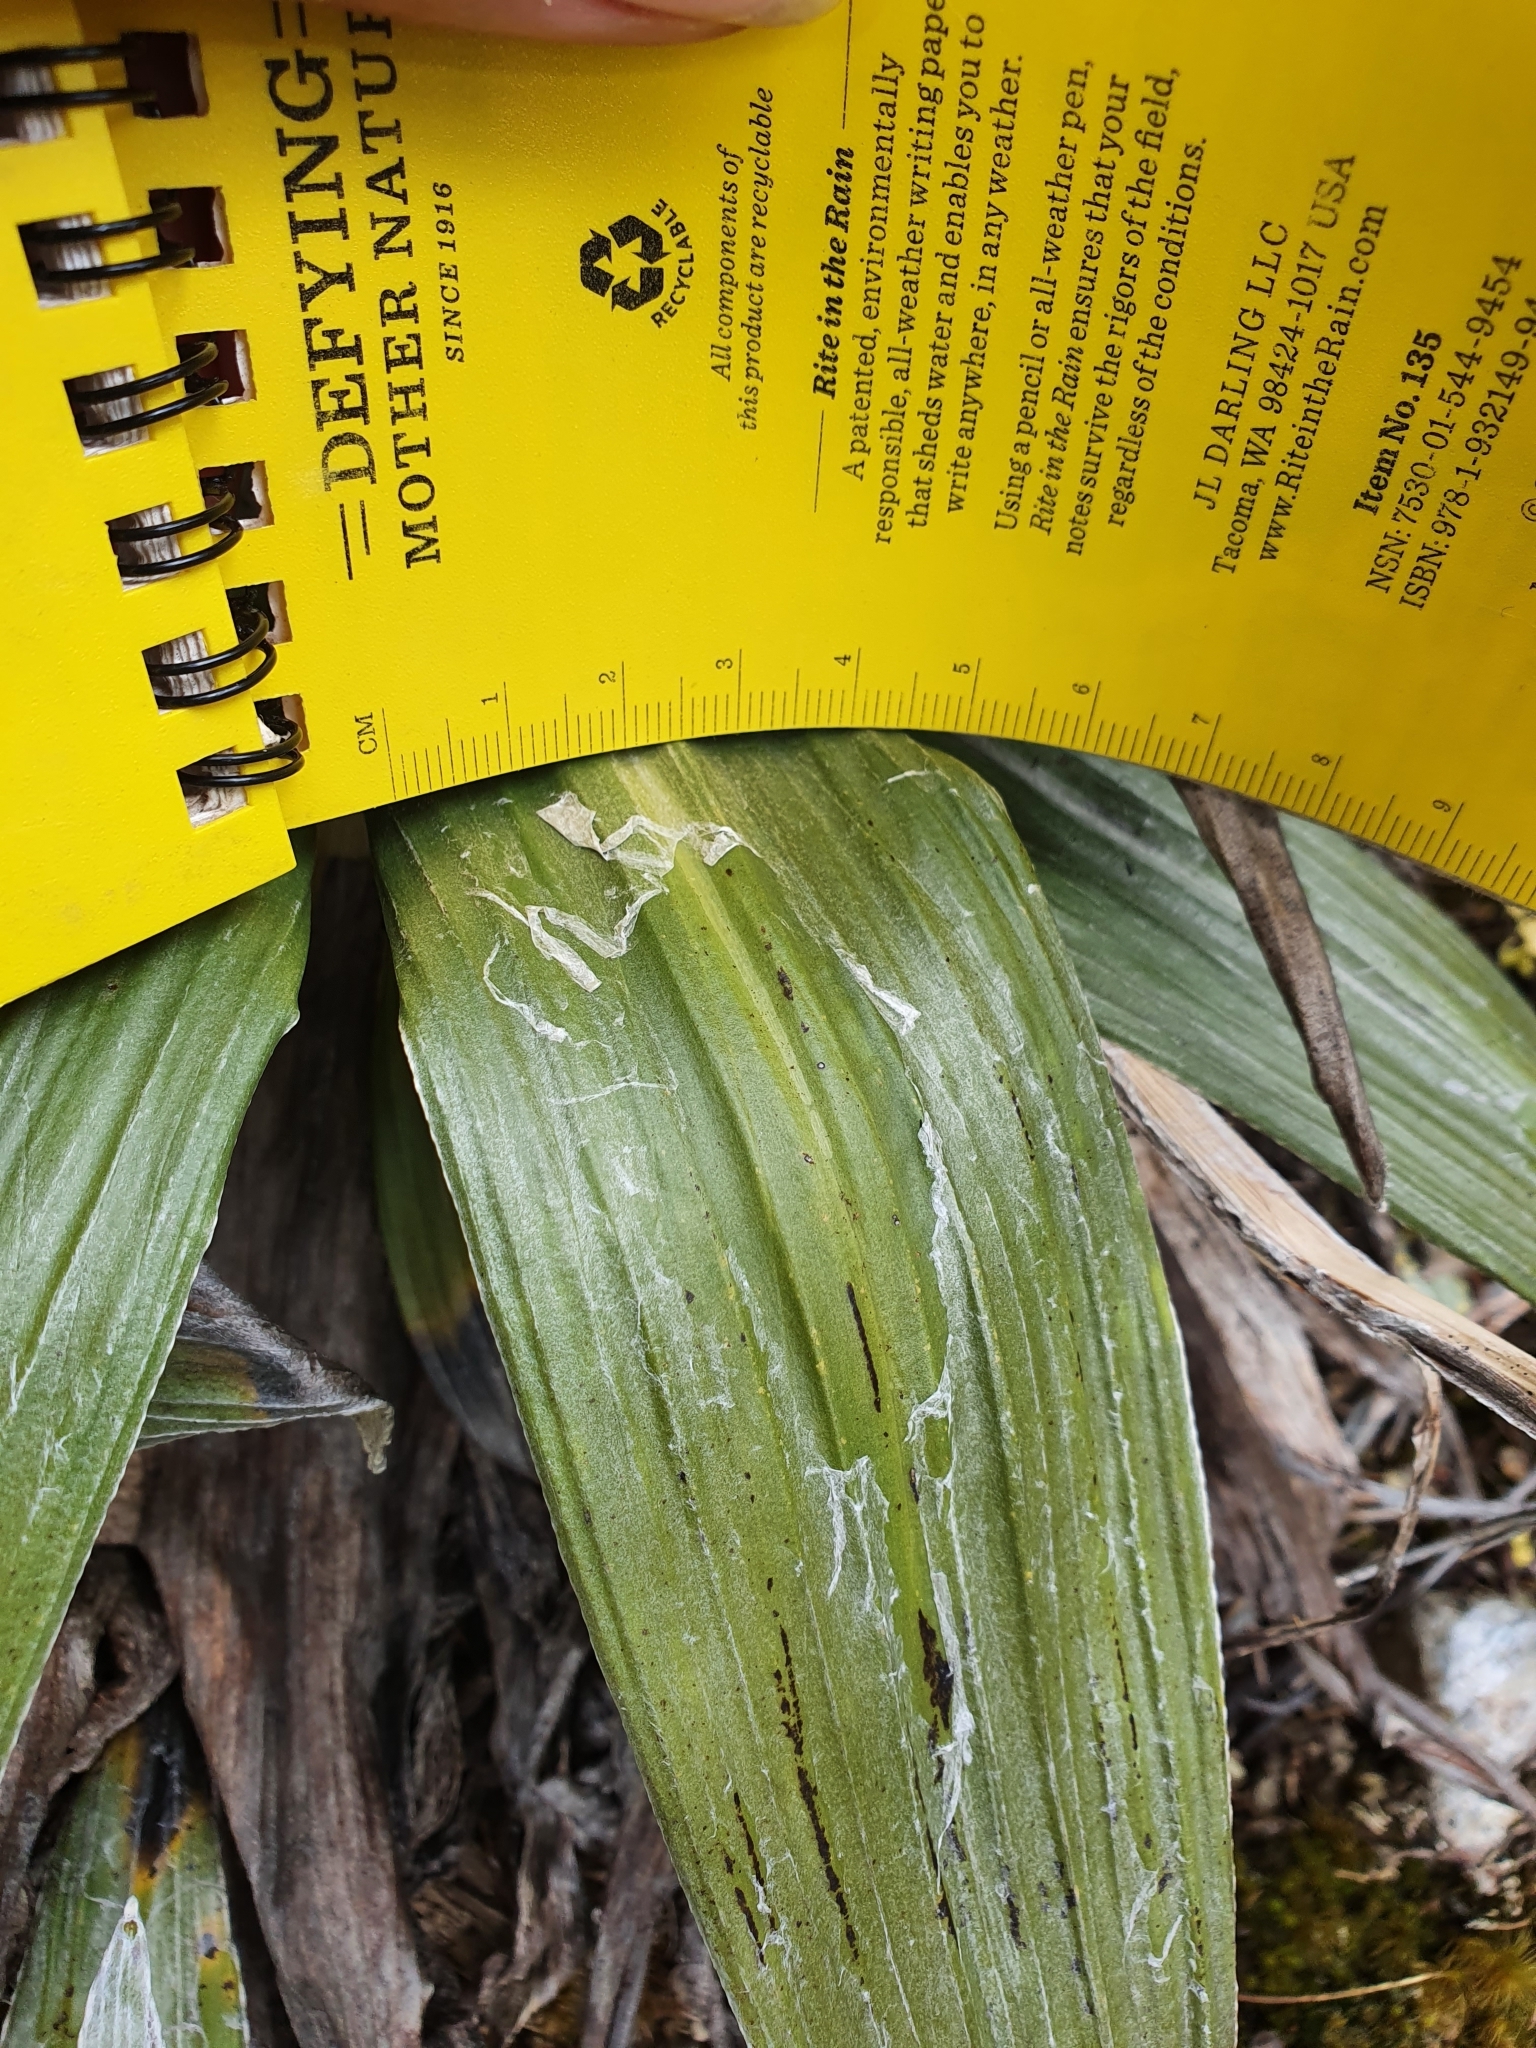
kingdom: Plantae
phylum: Tracheophyta
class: Magnoliopsida
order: Asterales
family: Asteraceae
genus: Celmisia
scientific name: Celmisia semicordata
